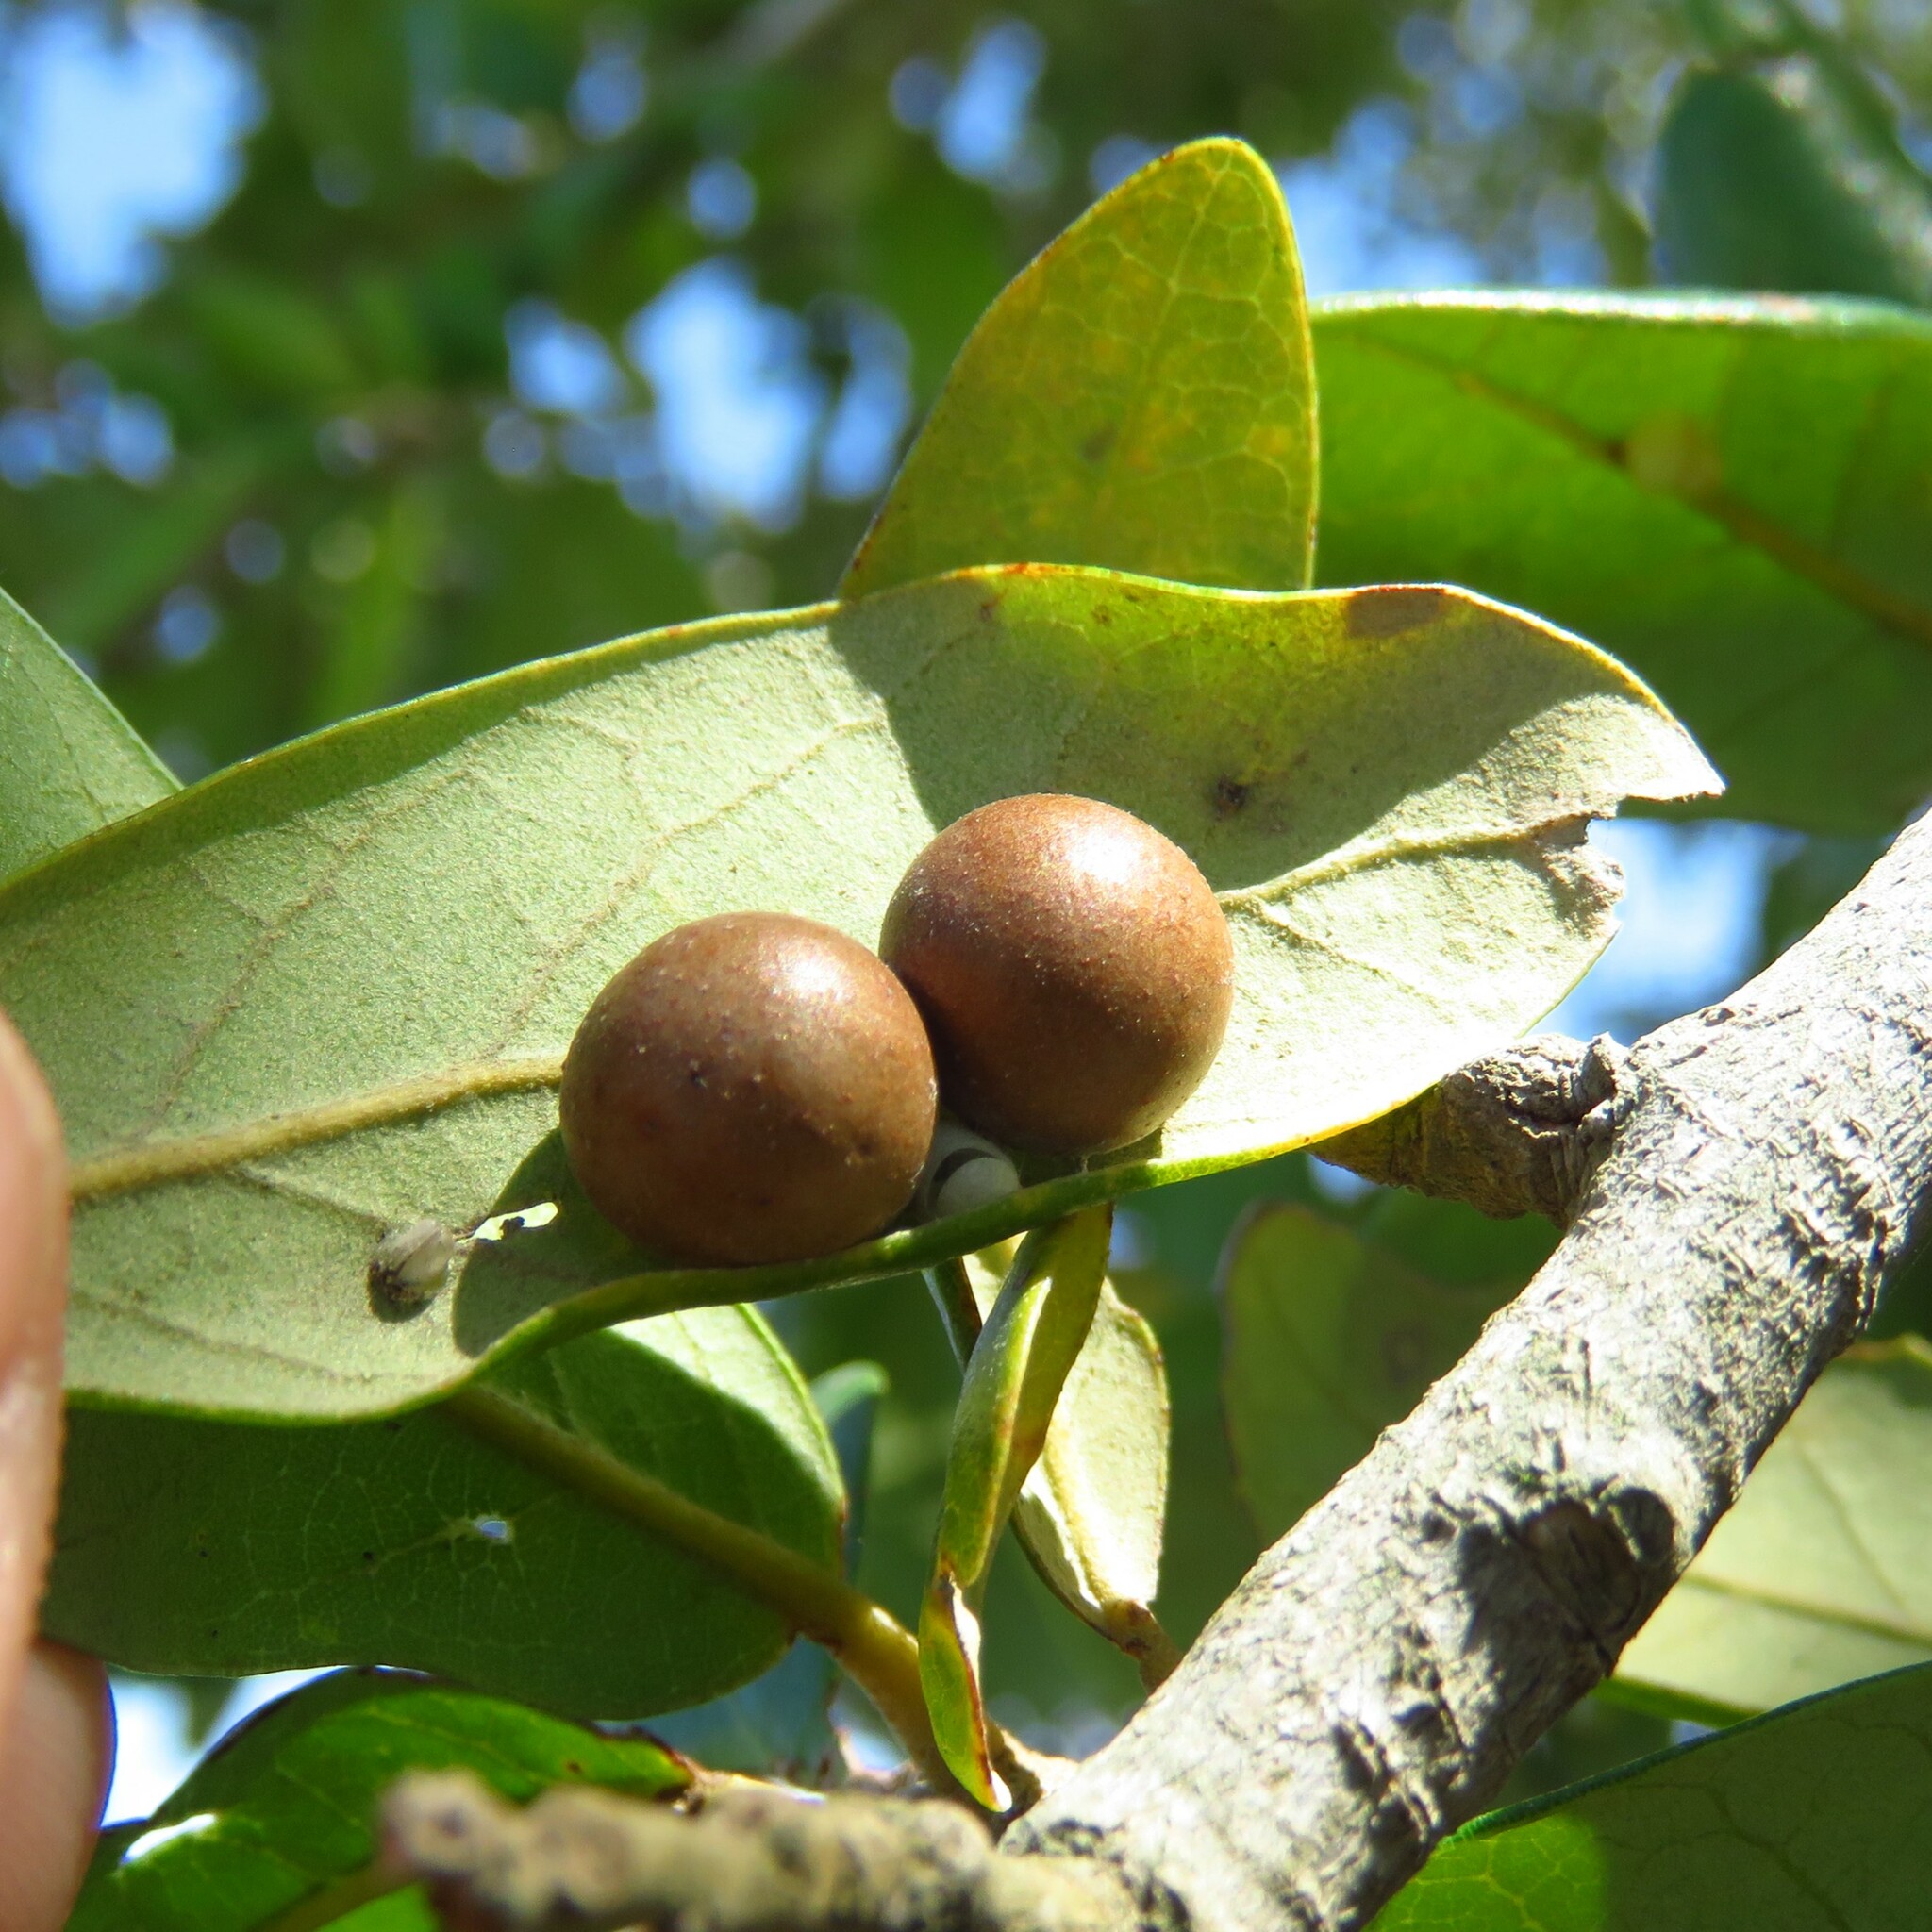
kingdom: Animalia
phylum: Arthropoda
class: Insecta
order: Hymenoptera
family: Cynipidae
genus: Belonocnema
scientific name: Belonocnema kinseyi
